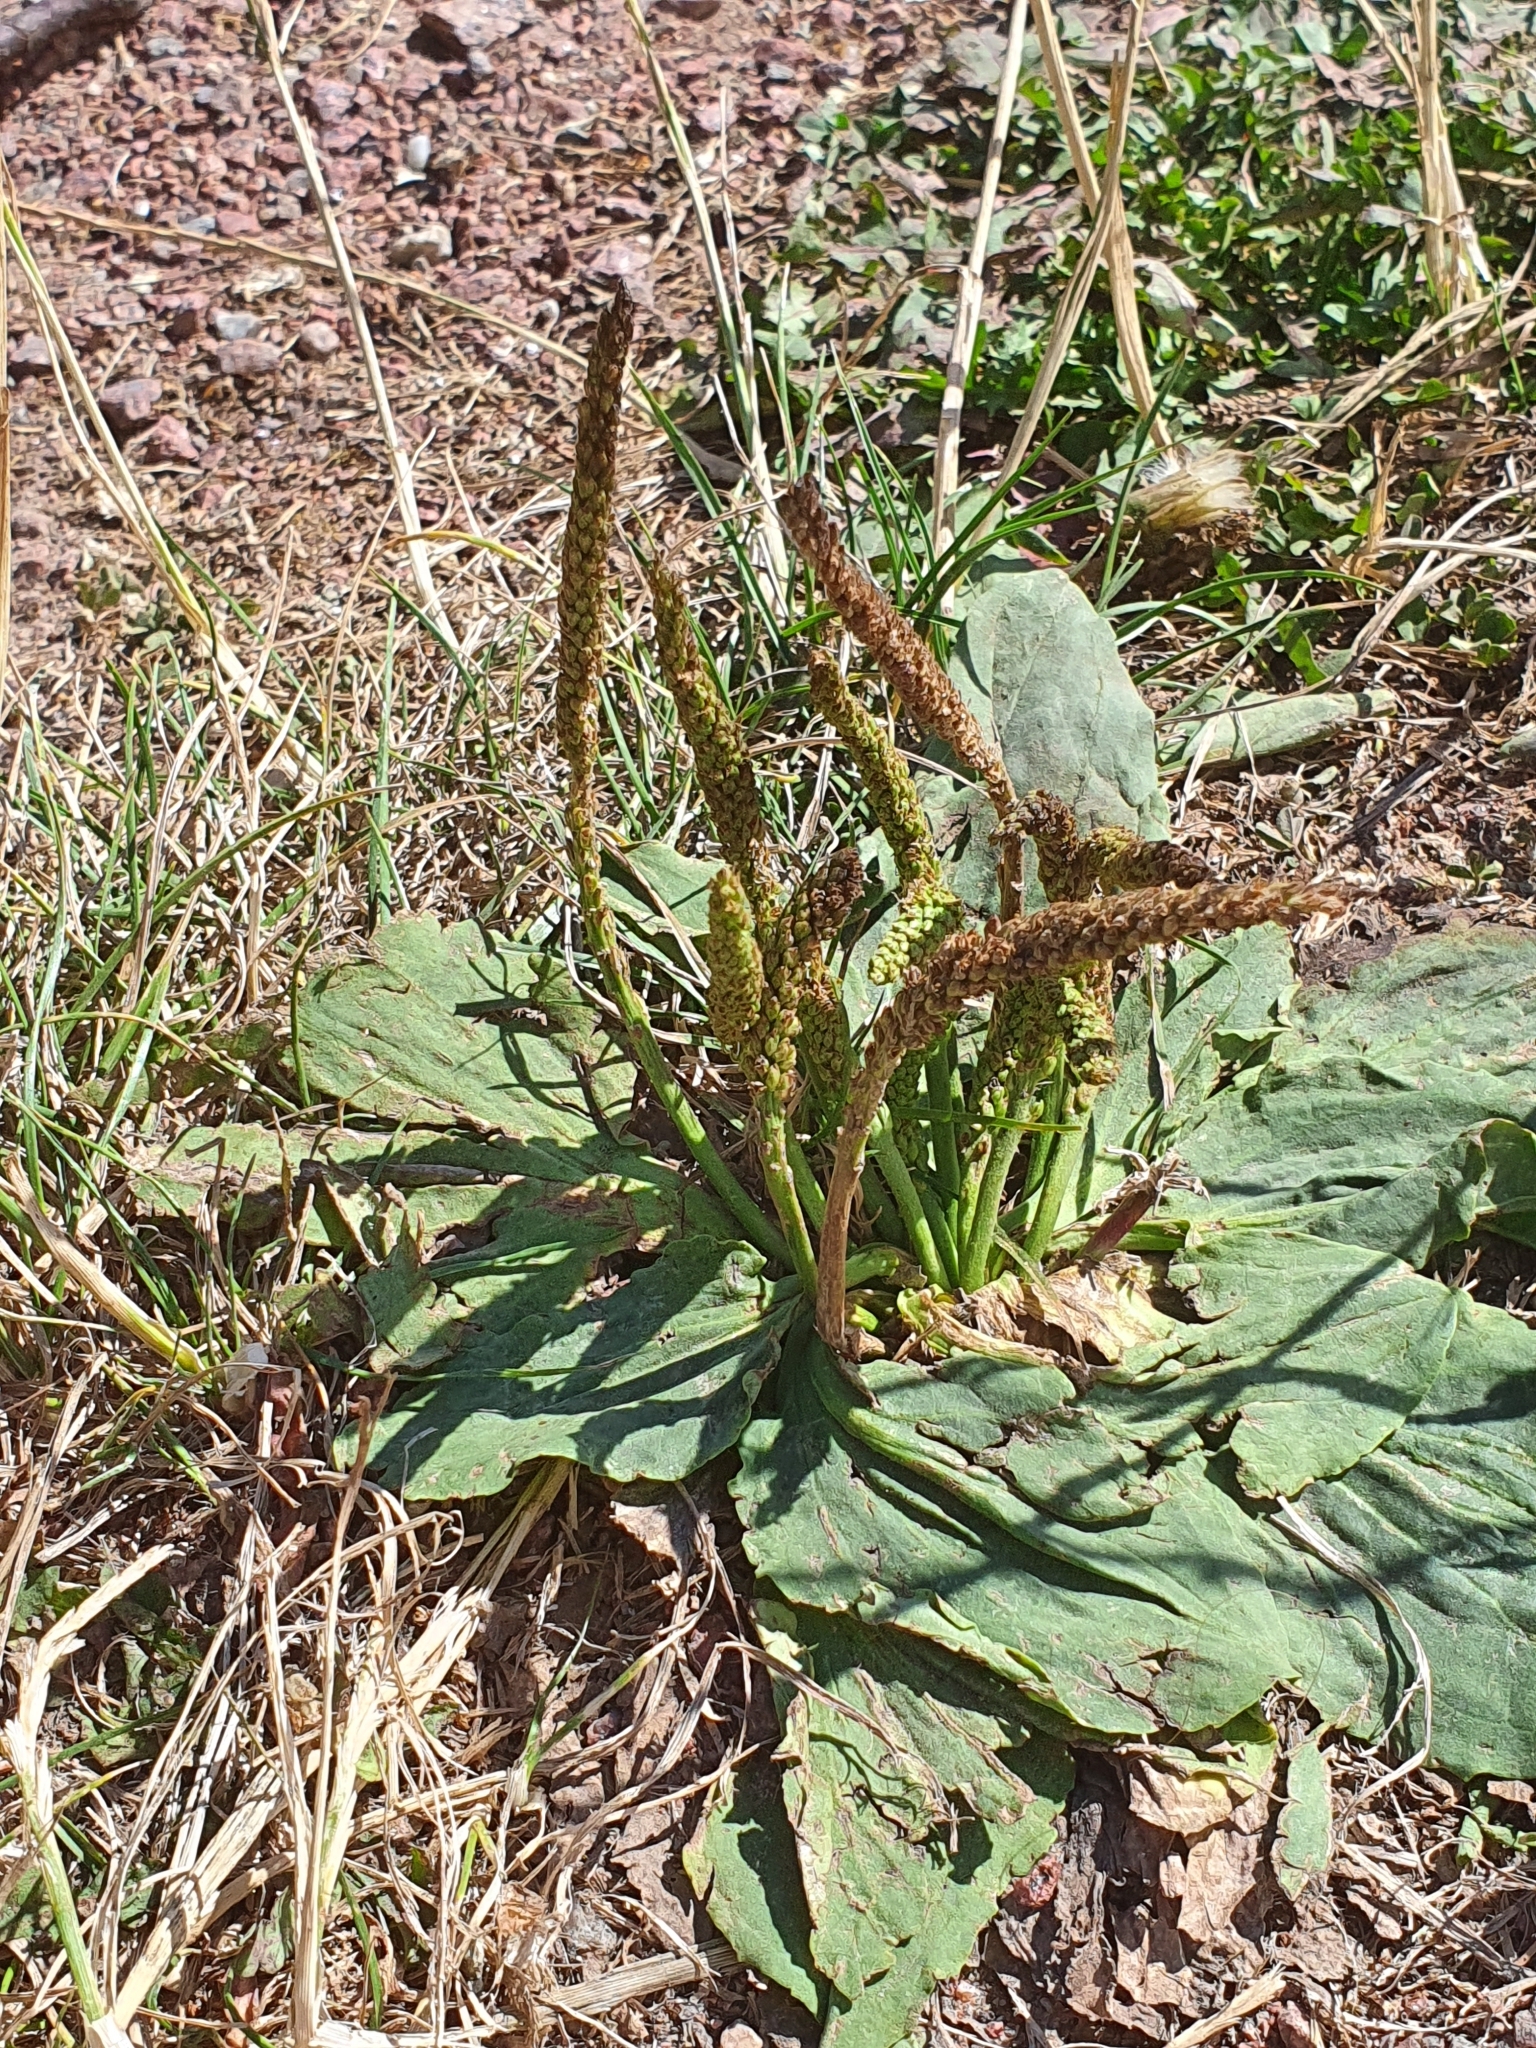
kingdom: Plantae
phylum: Tracheophyta
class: Magnoliopsida
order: Lamiales
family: Plantaginaceae
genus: Plantago
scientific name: Plantago major
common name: Common plantain
